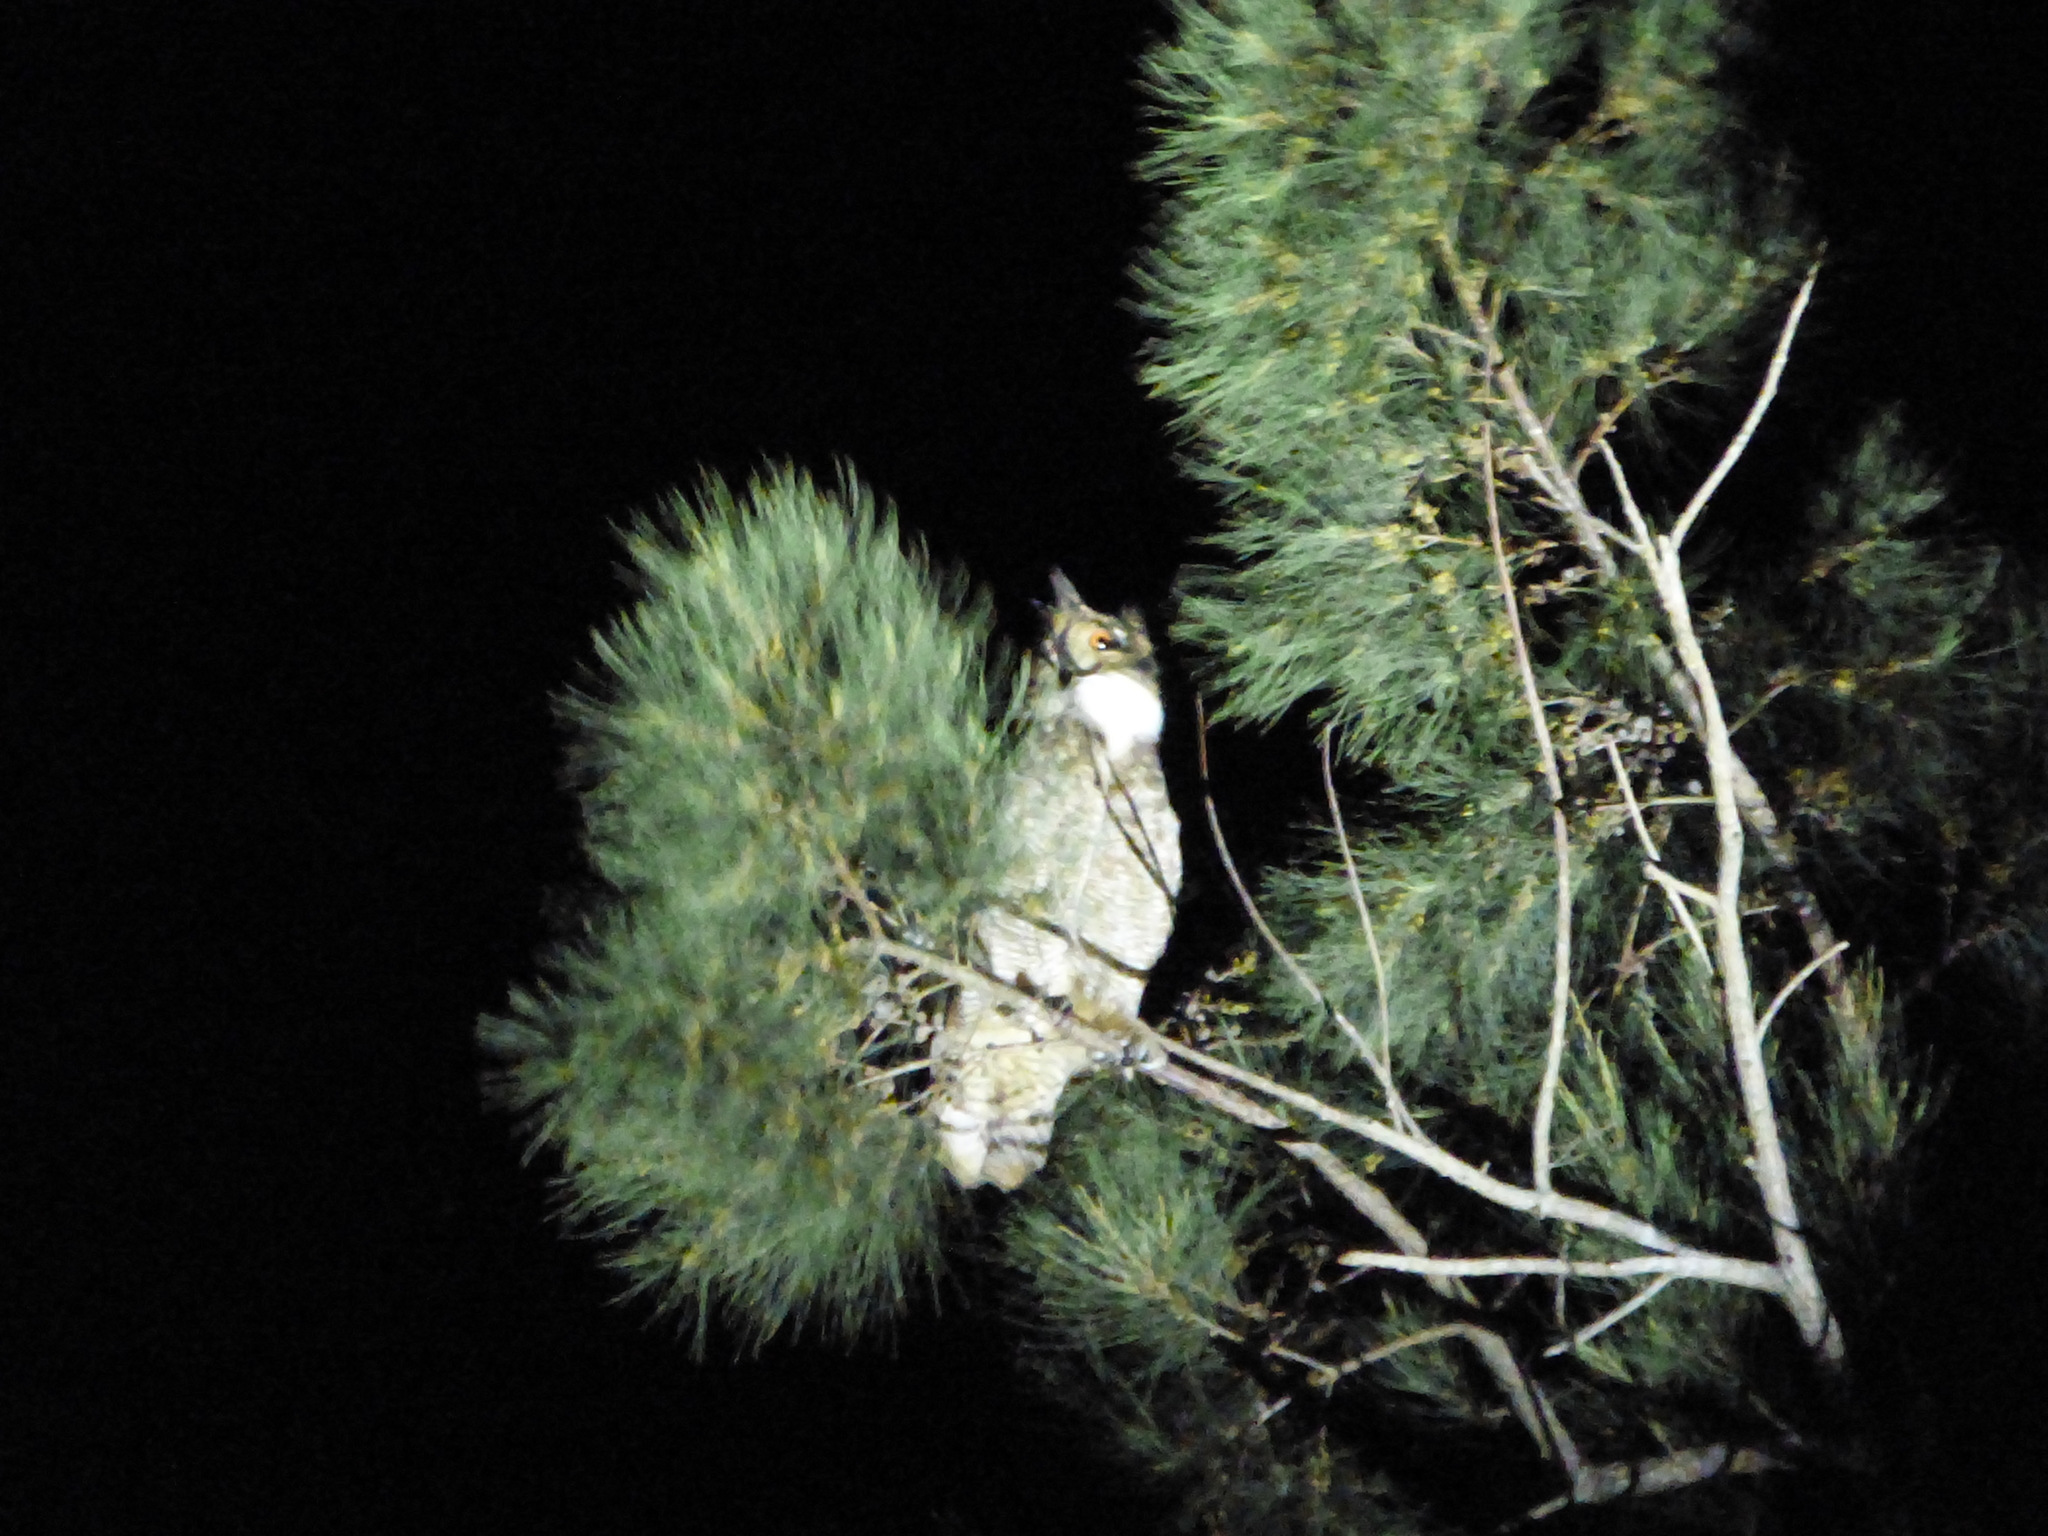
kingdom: Animalia
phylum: Chordata
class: Aves
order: Strigiformes
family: Strigidae
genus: Bubo
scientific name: Bubo virginianus
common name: Great horned owl
